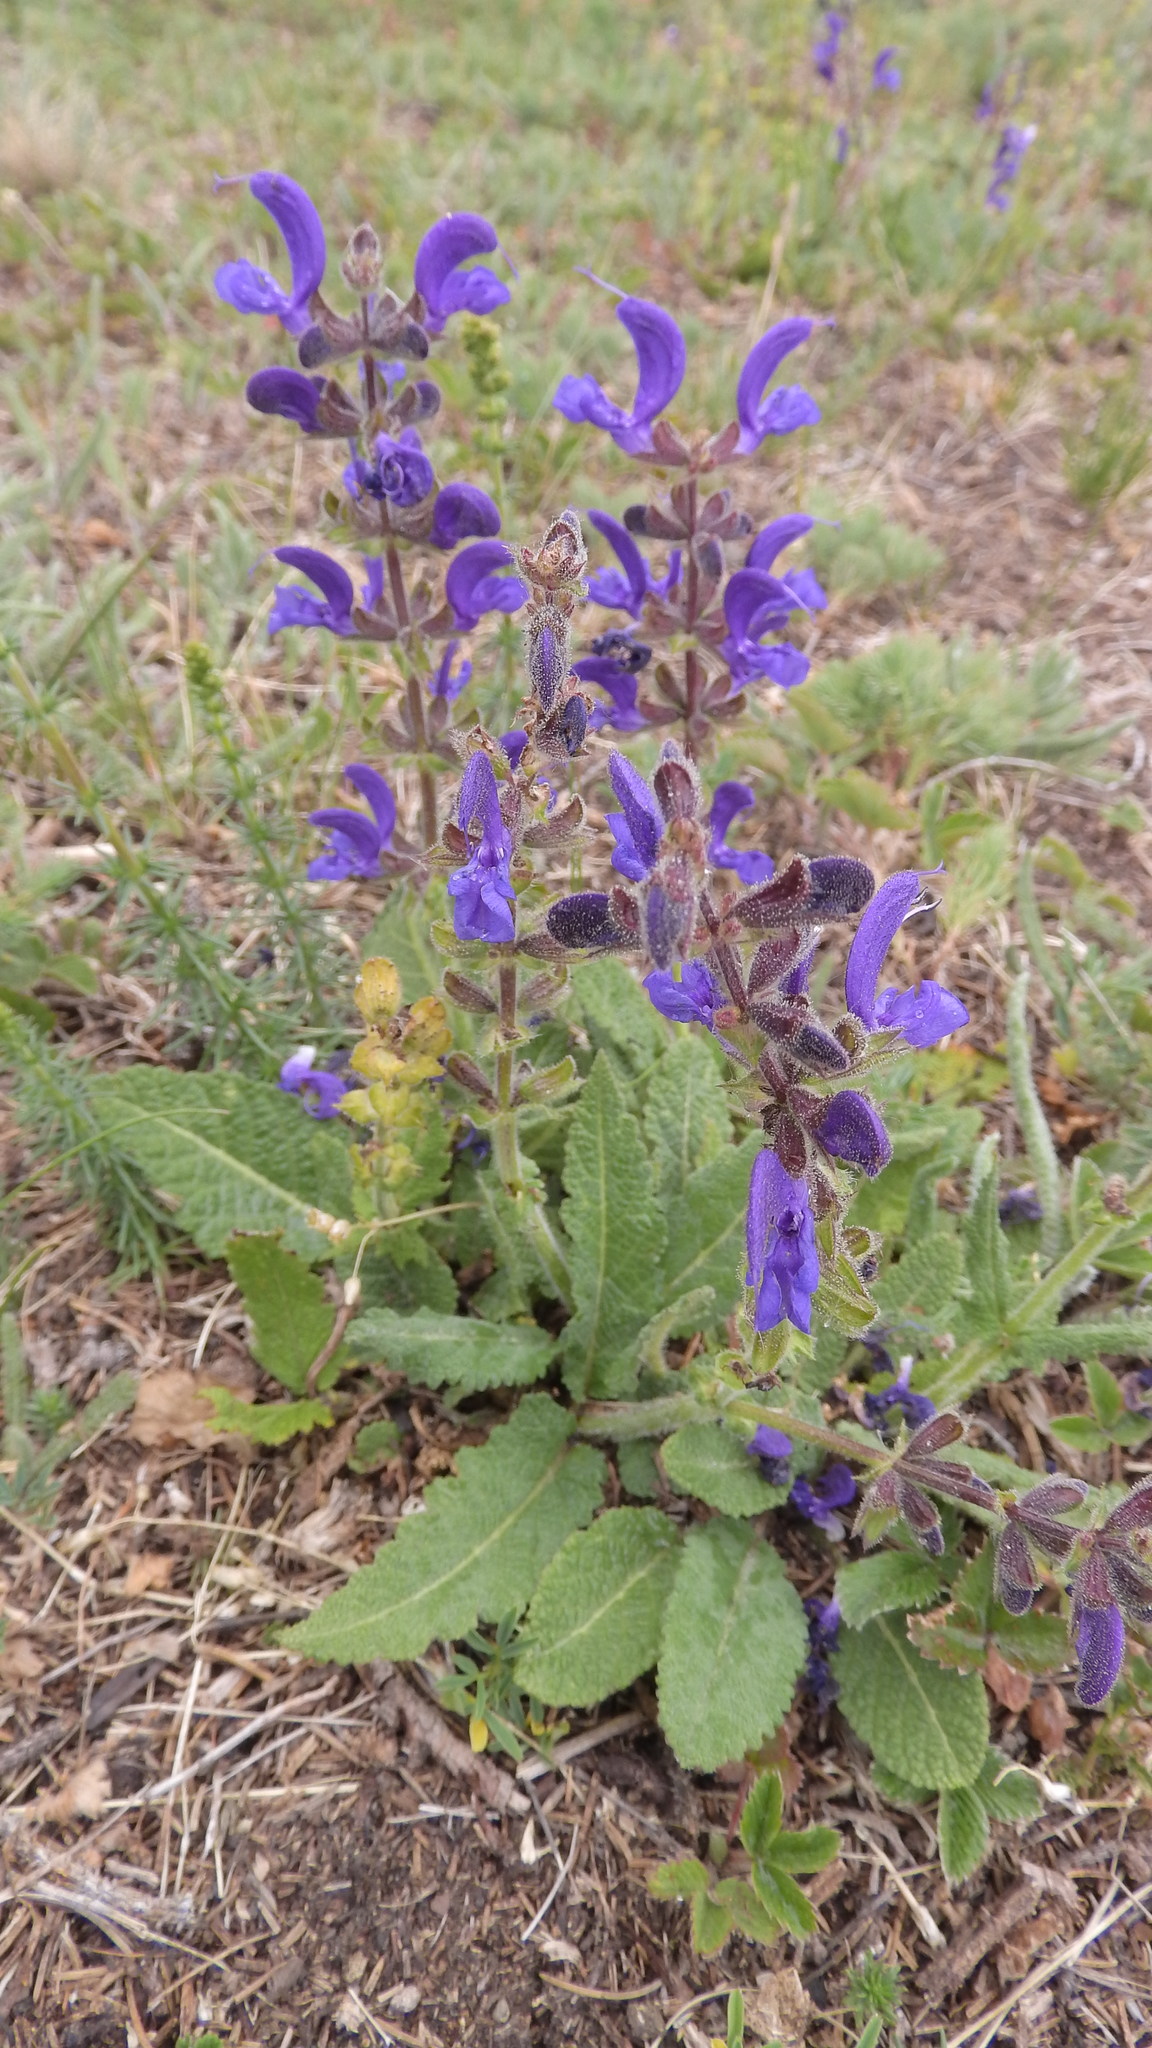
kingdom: Plantae
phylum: Tracheophyta
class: Magnoliopsida
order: Lamiales
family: Lamiaceae
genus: Salvia
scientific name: Salvia pratensis
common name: Meadow sage
